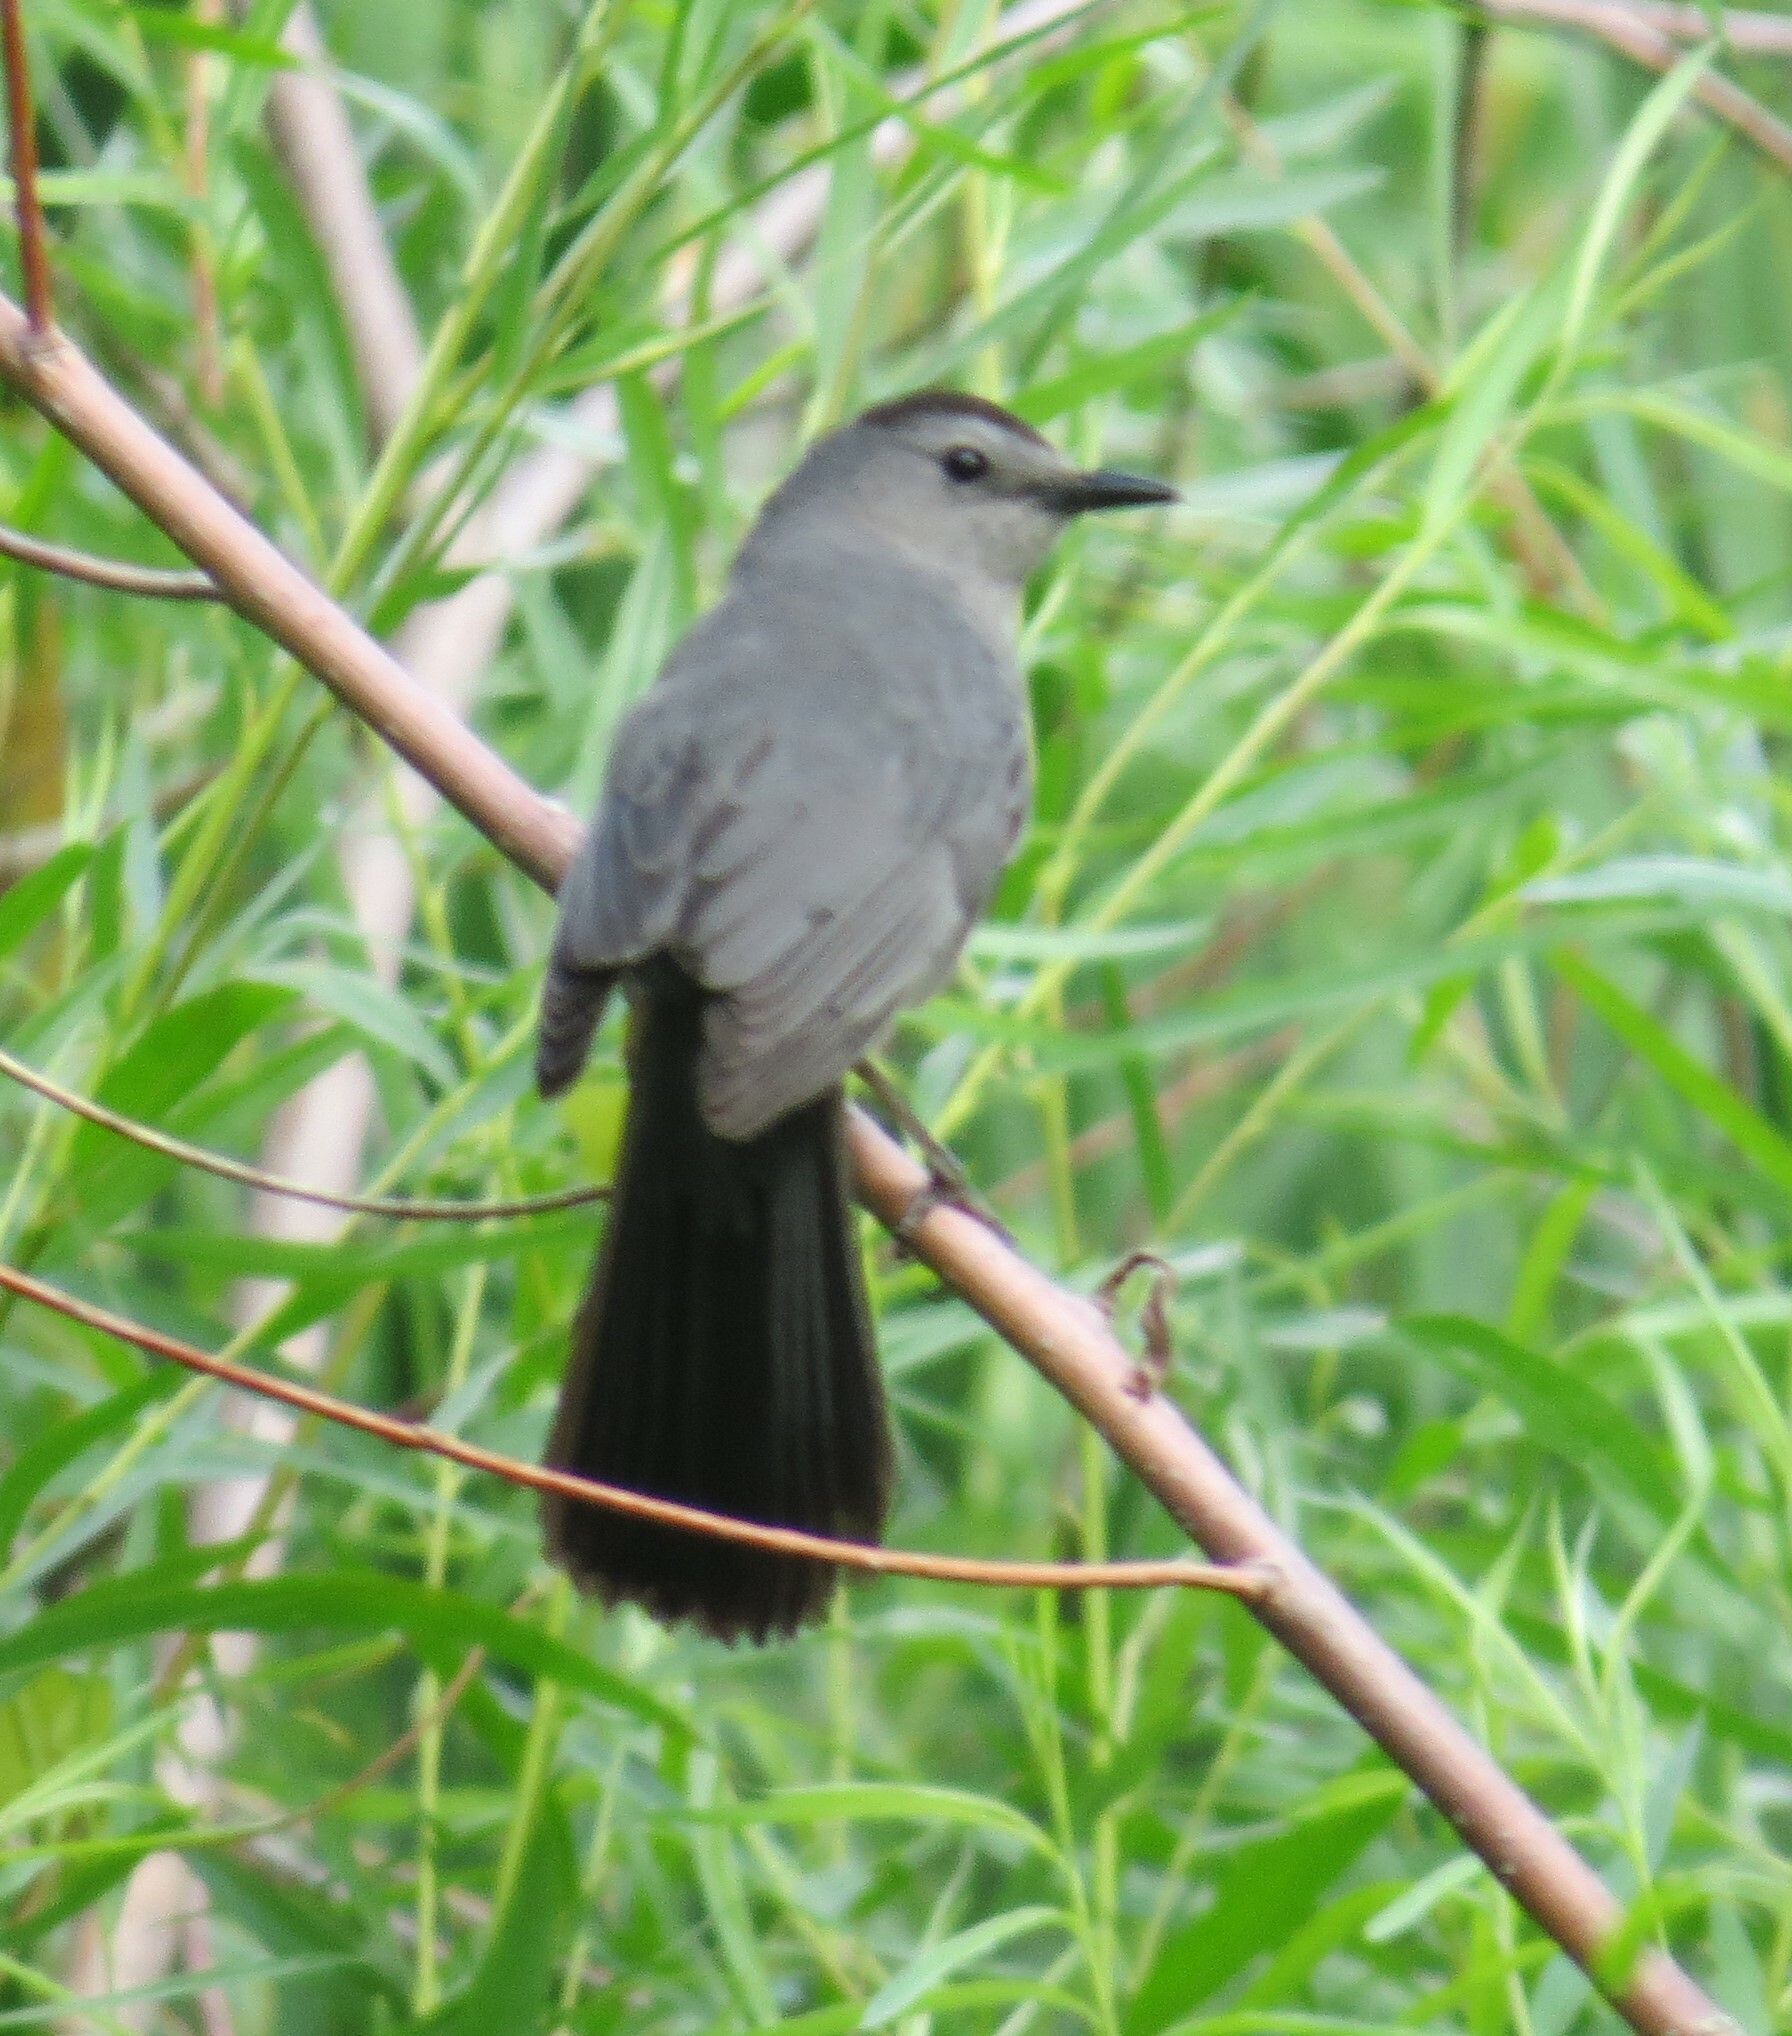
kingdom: Animalia
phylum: Chordata
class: Aves
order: Passeriformes
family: Mimidae
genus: Dumetella
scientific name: Dumetella carolinensis
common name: Gray catbird
